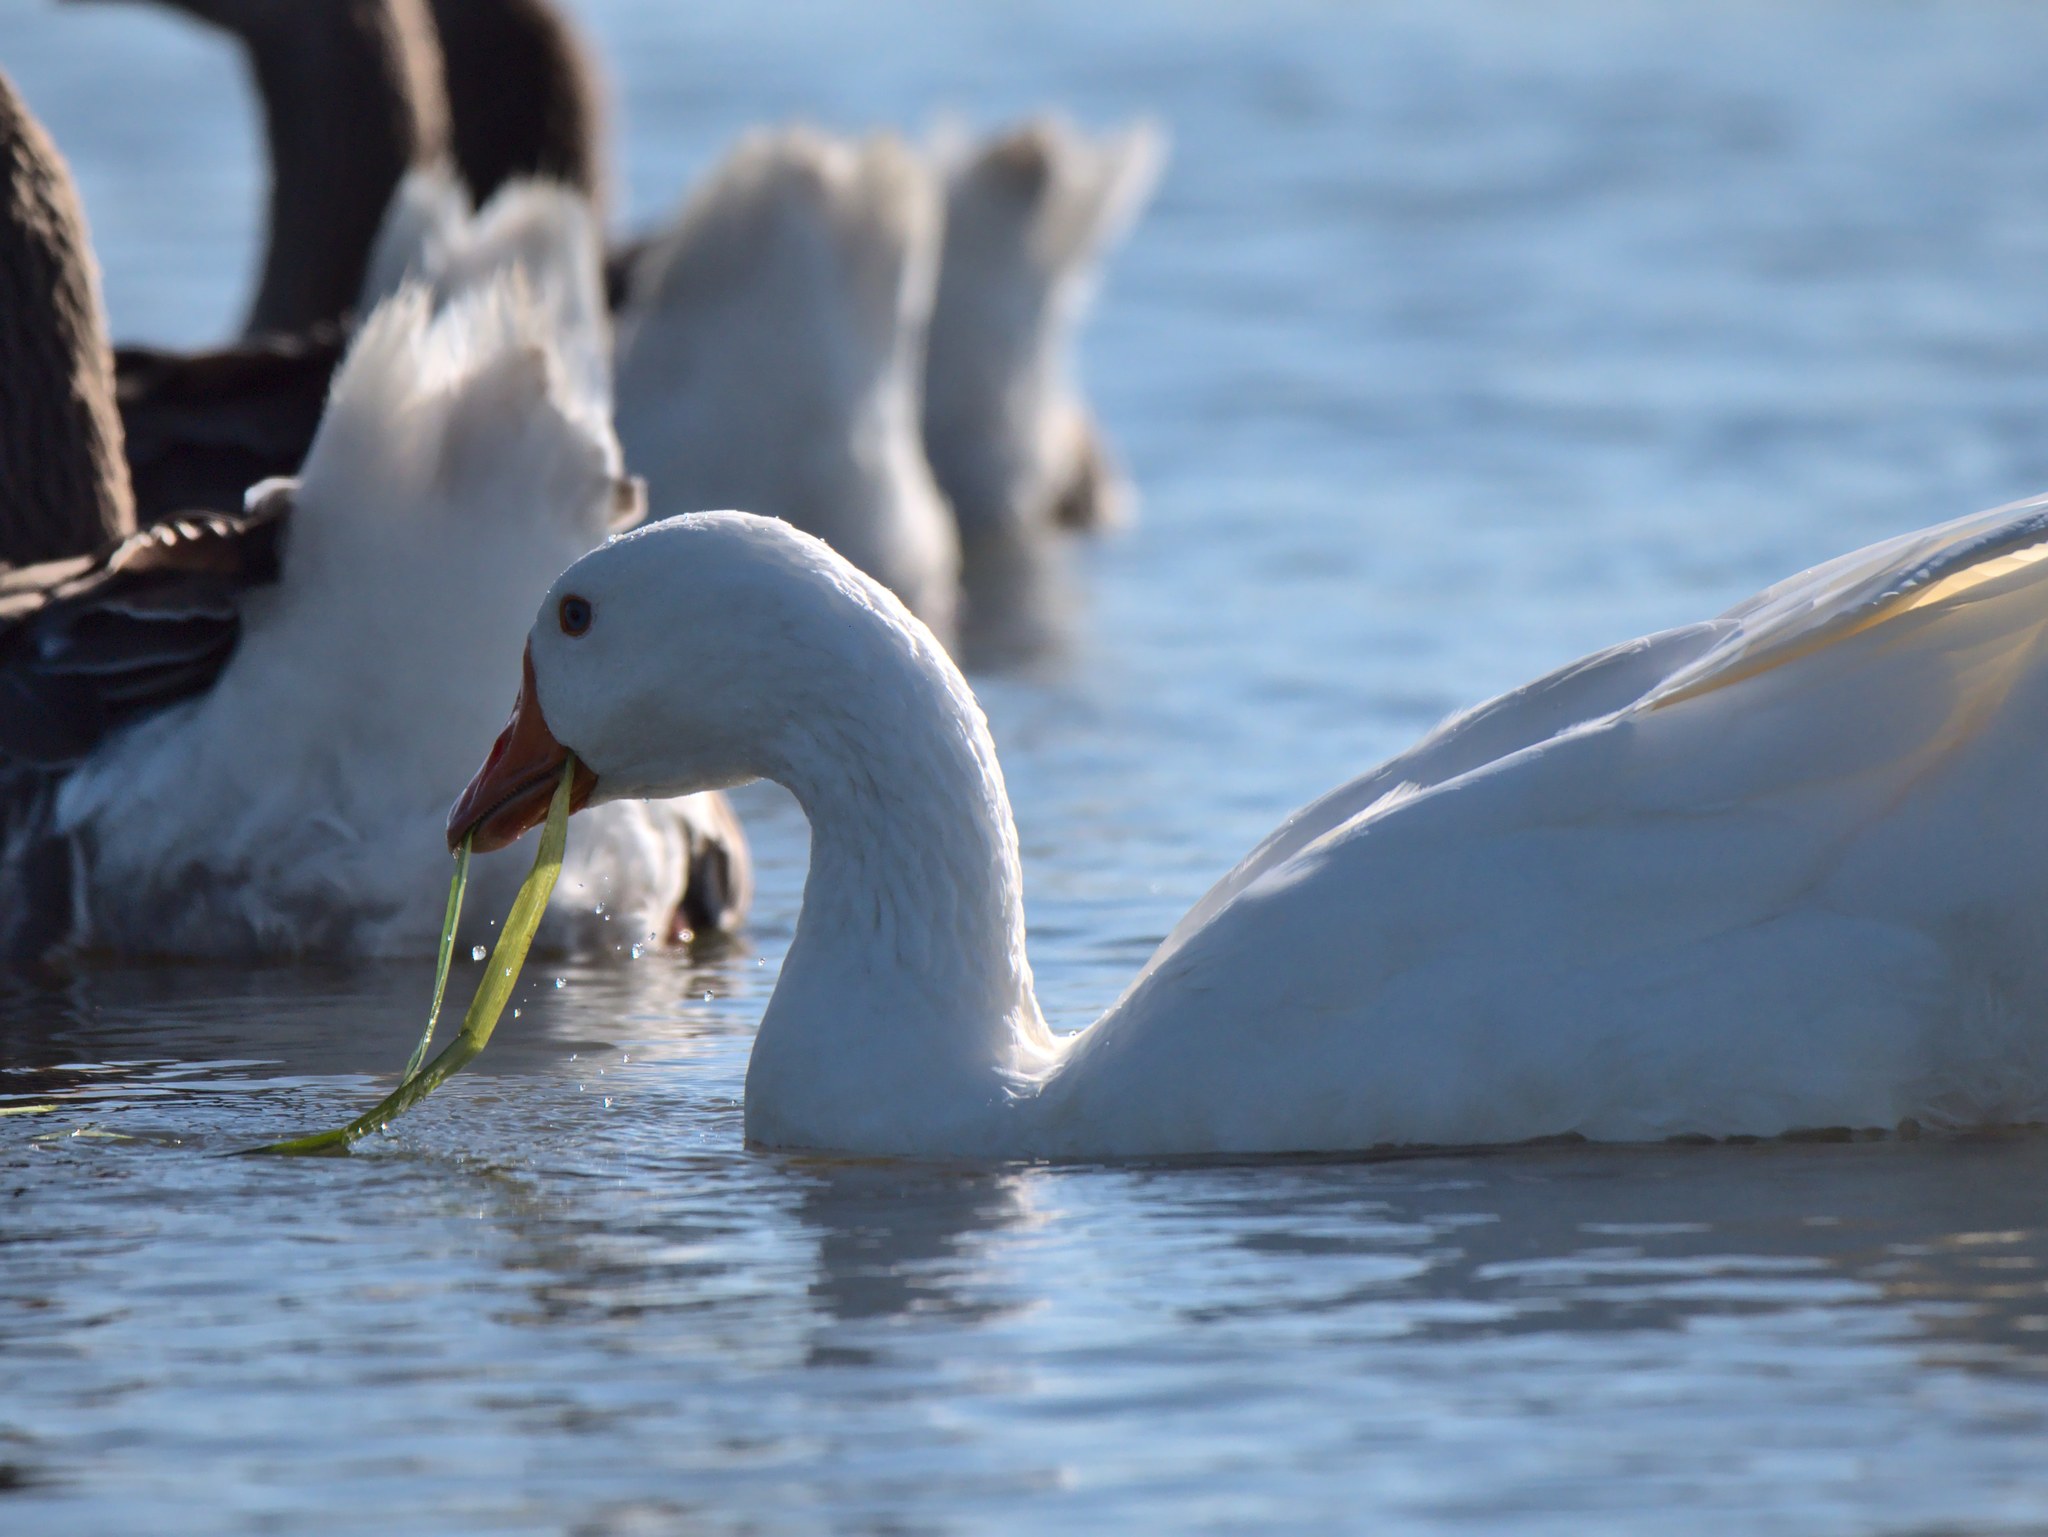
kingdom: Animalia
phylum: Chordata
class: Aves
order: Anseriformes
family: Anatidae
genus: Anser
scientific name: Anser anser
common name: Greylag goose
